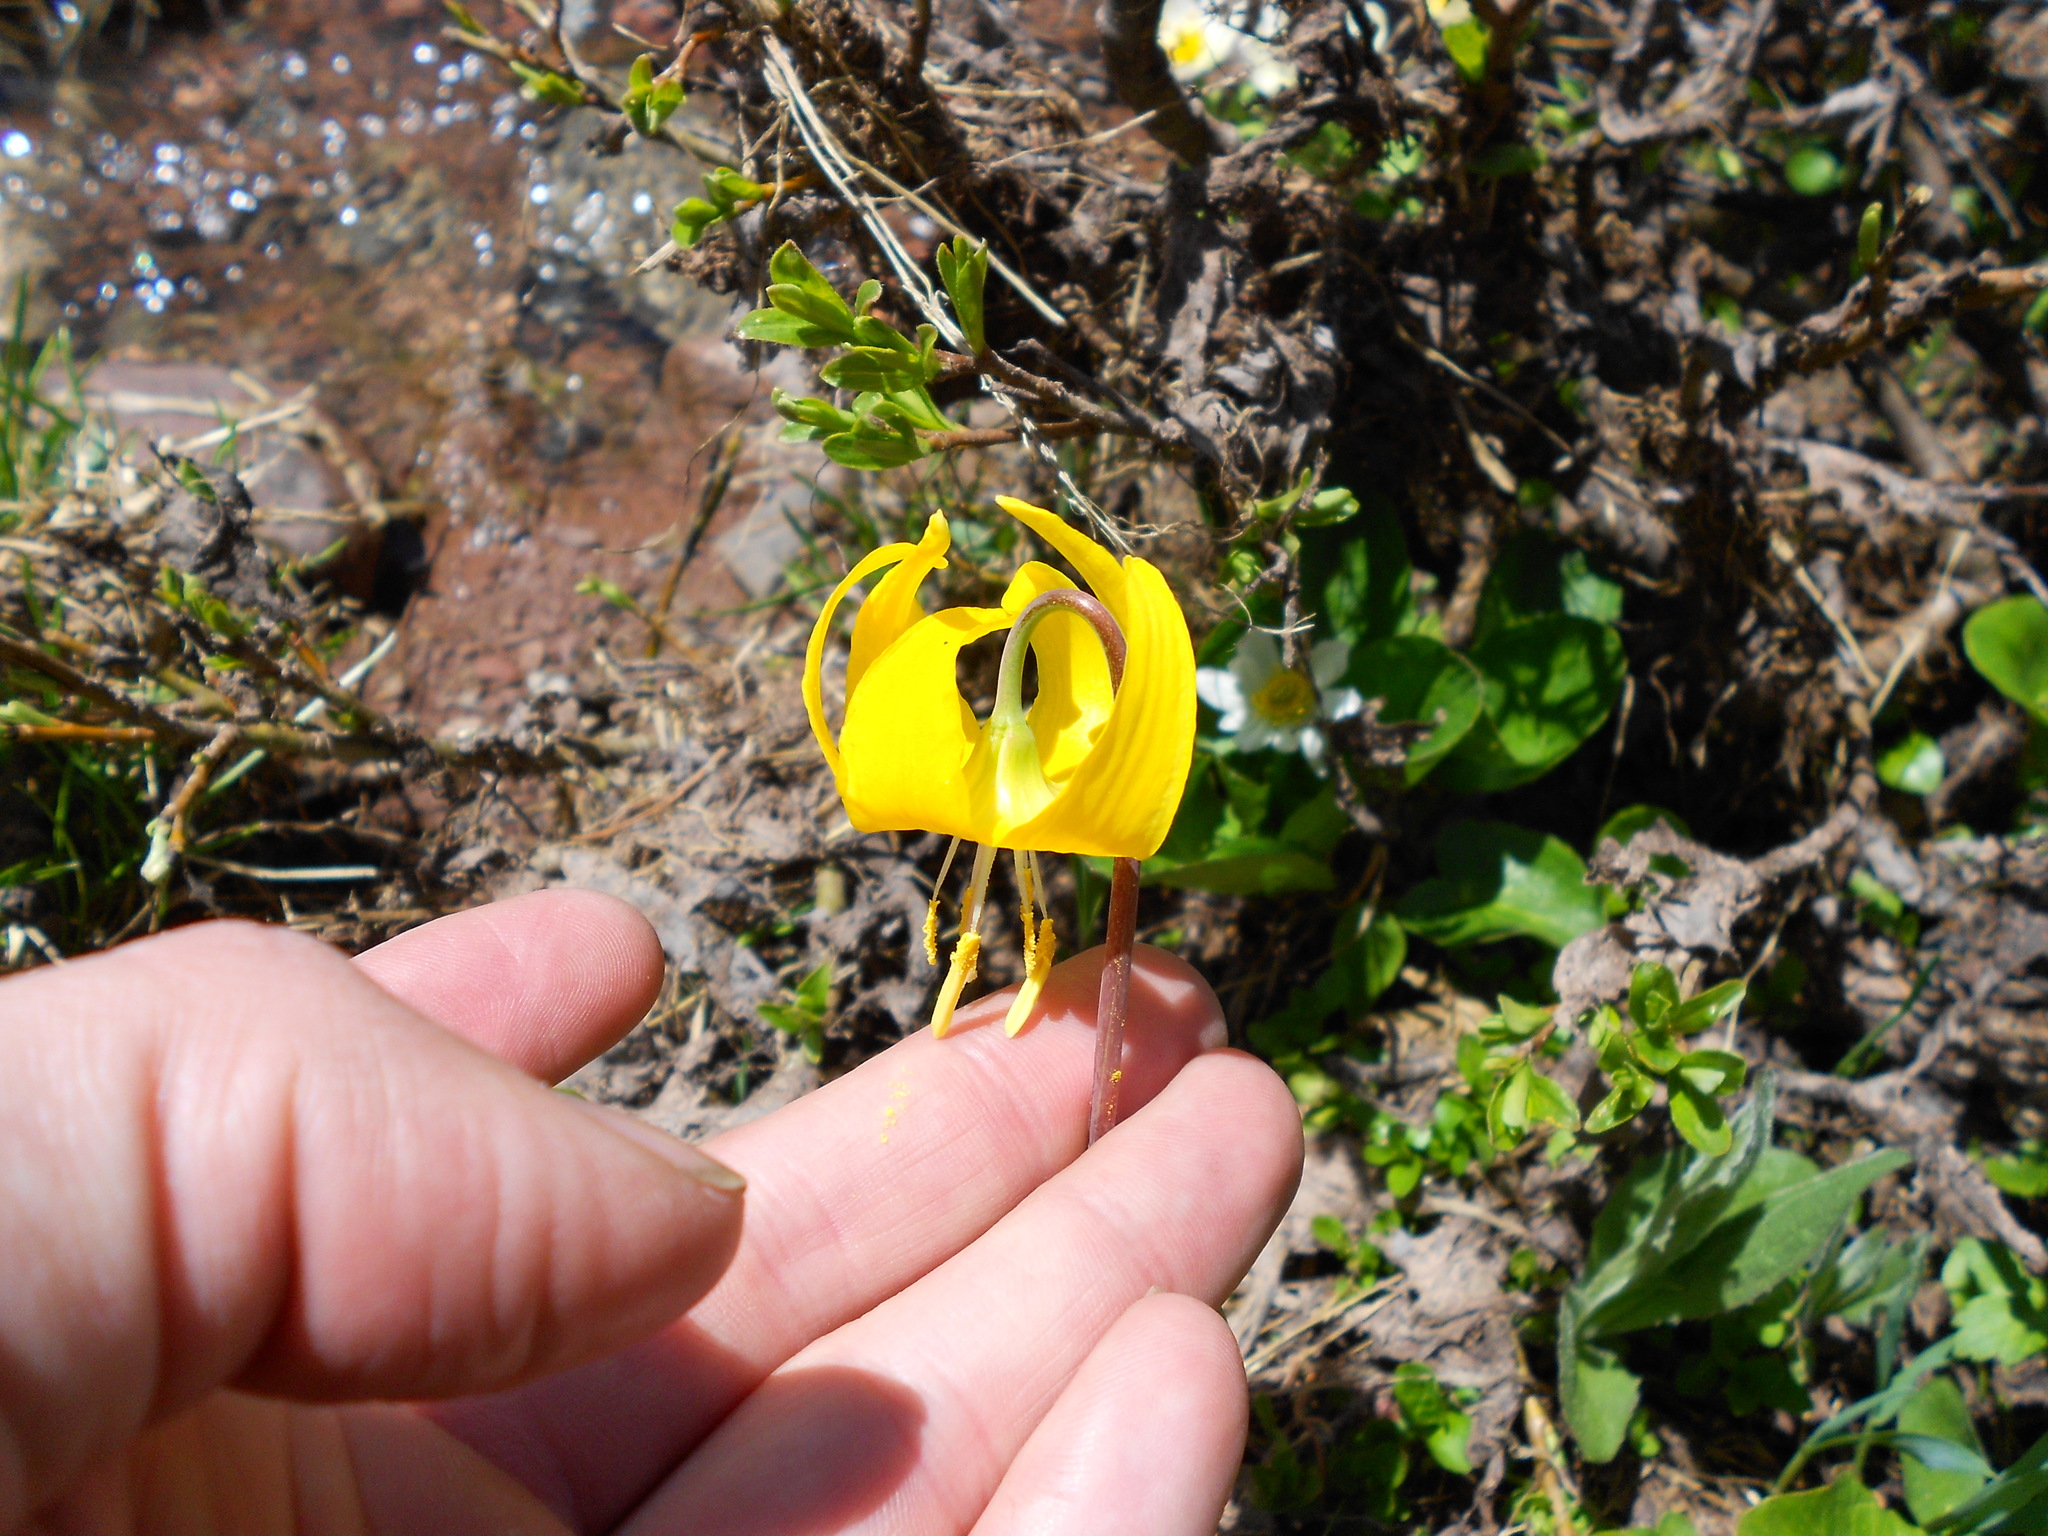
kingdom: Plantae
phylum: Tracheophyta
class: Liliopsida
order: Liliales
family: Liliaceae
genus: Erythronium
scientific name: Erythronium grandiflorum
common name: Avalanche-lily
